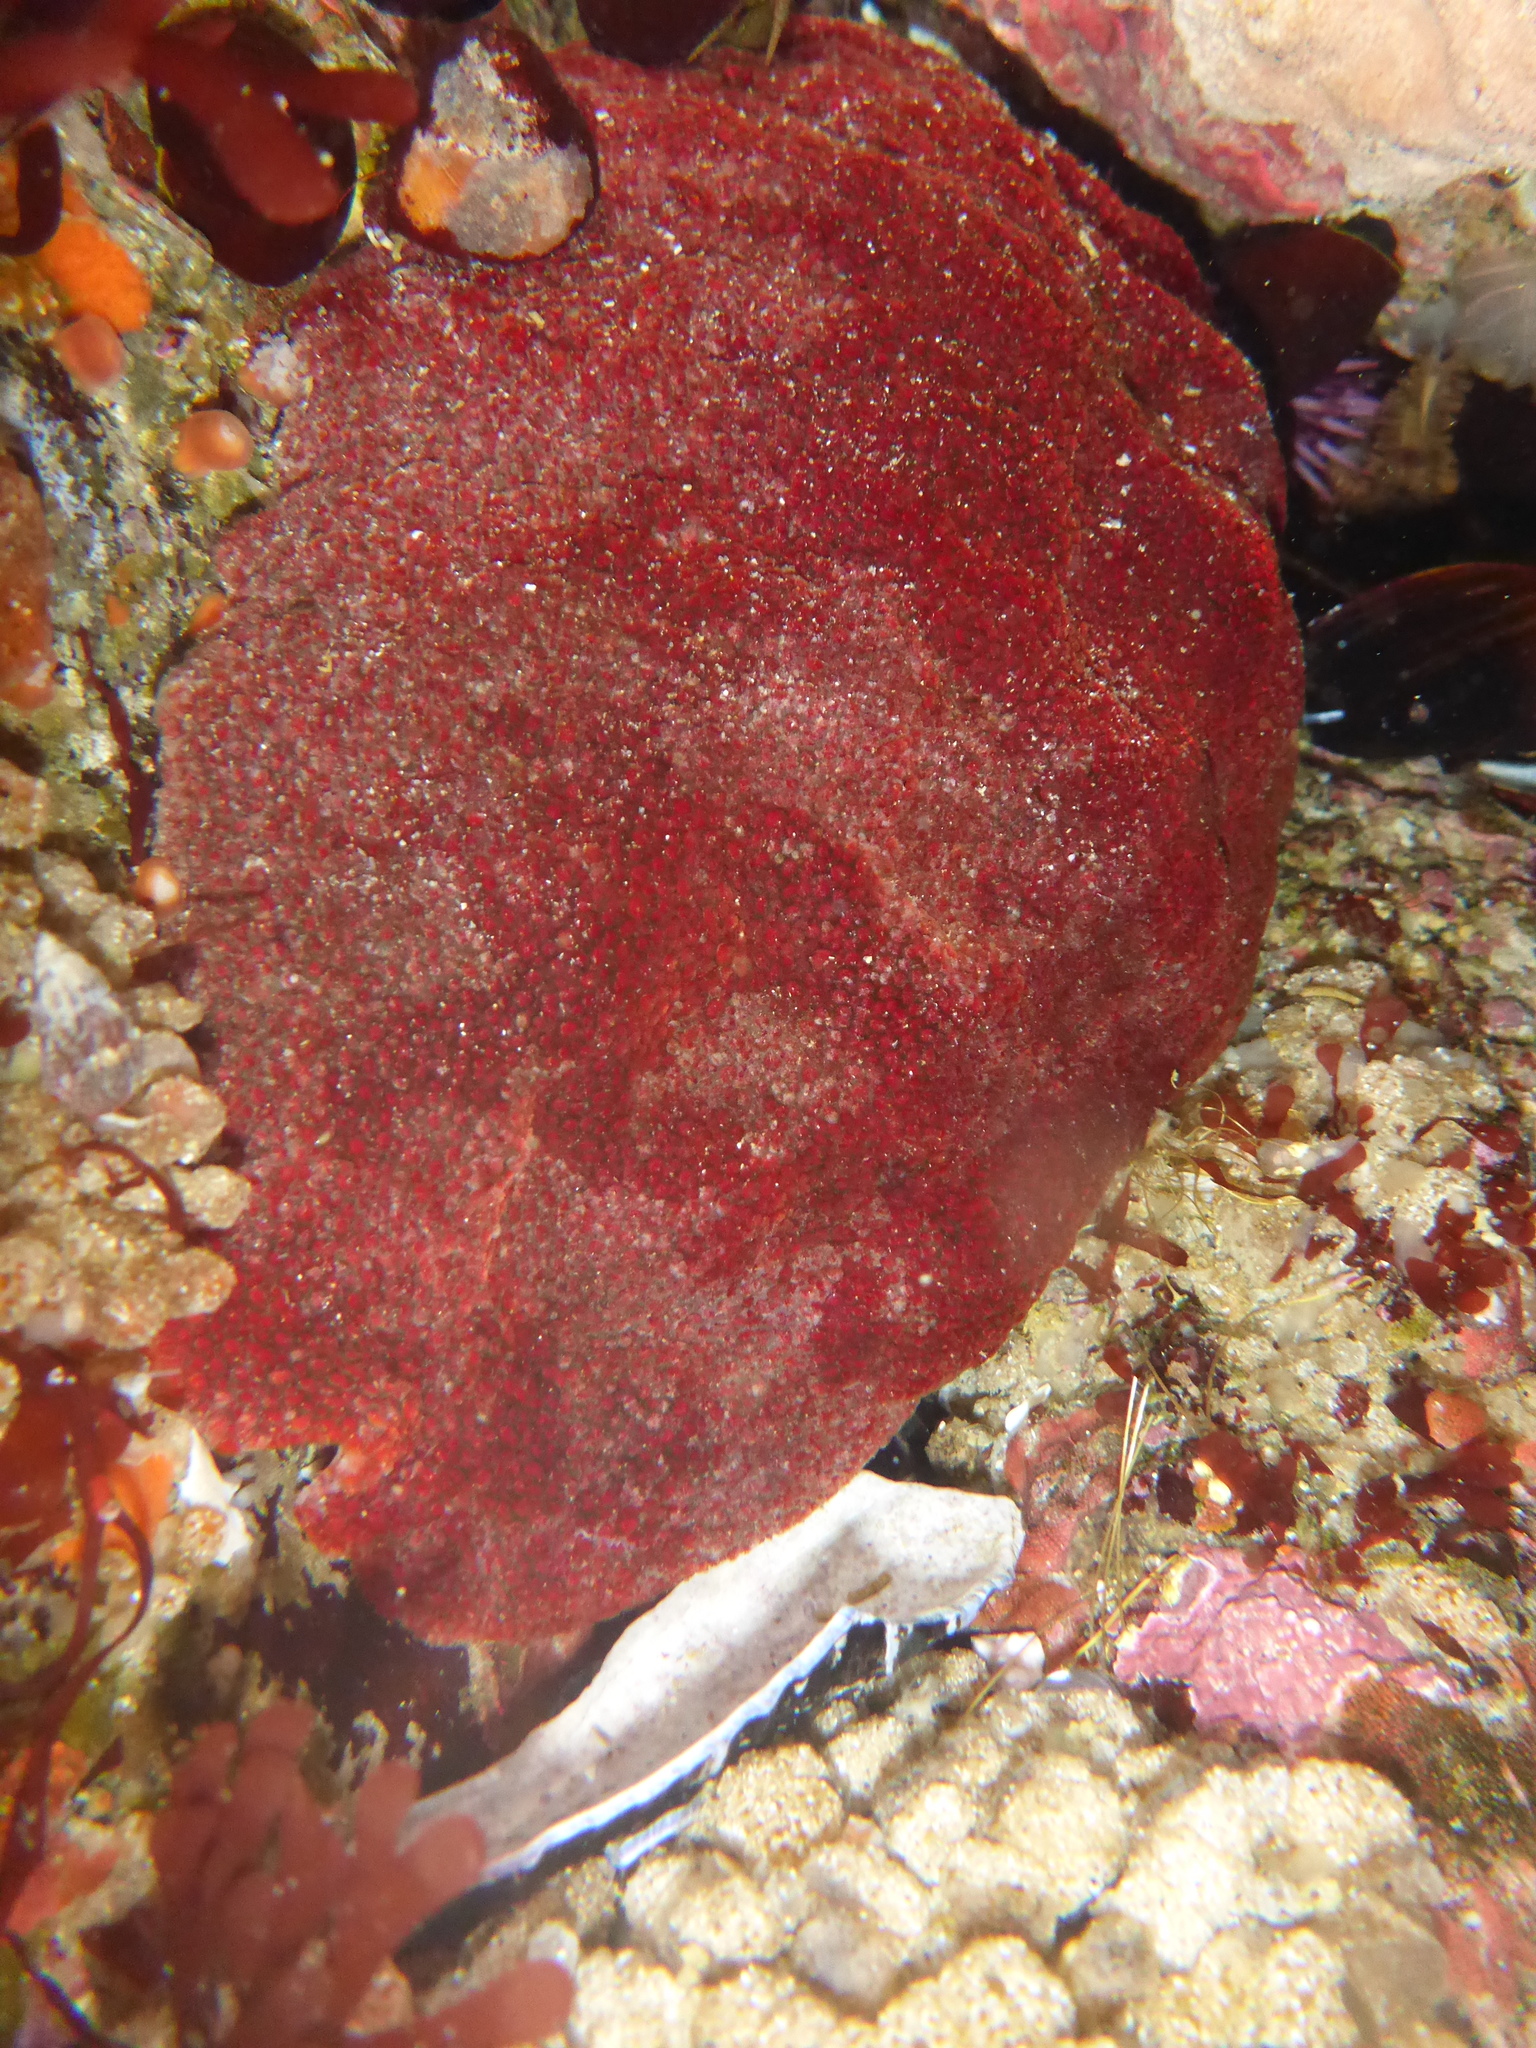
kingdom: Animalia
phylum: Mollusca
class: Polyplacophora
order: Chitonida
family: Acanthochitonidae
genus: Cryptochiton
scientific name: Cryptochiton stelleri
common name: Giant pacific chiton
